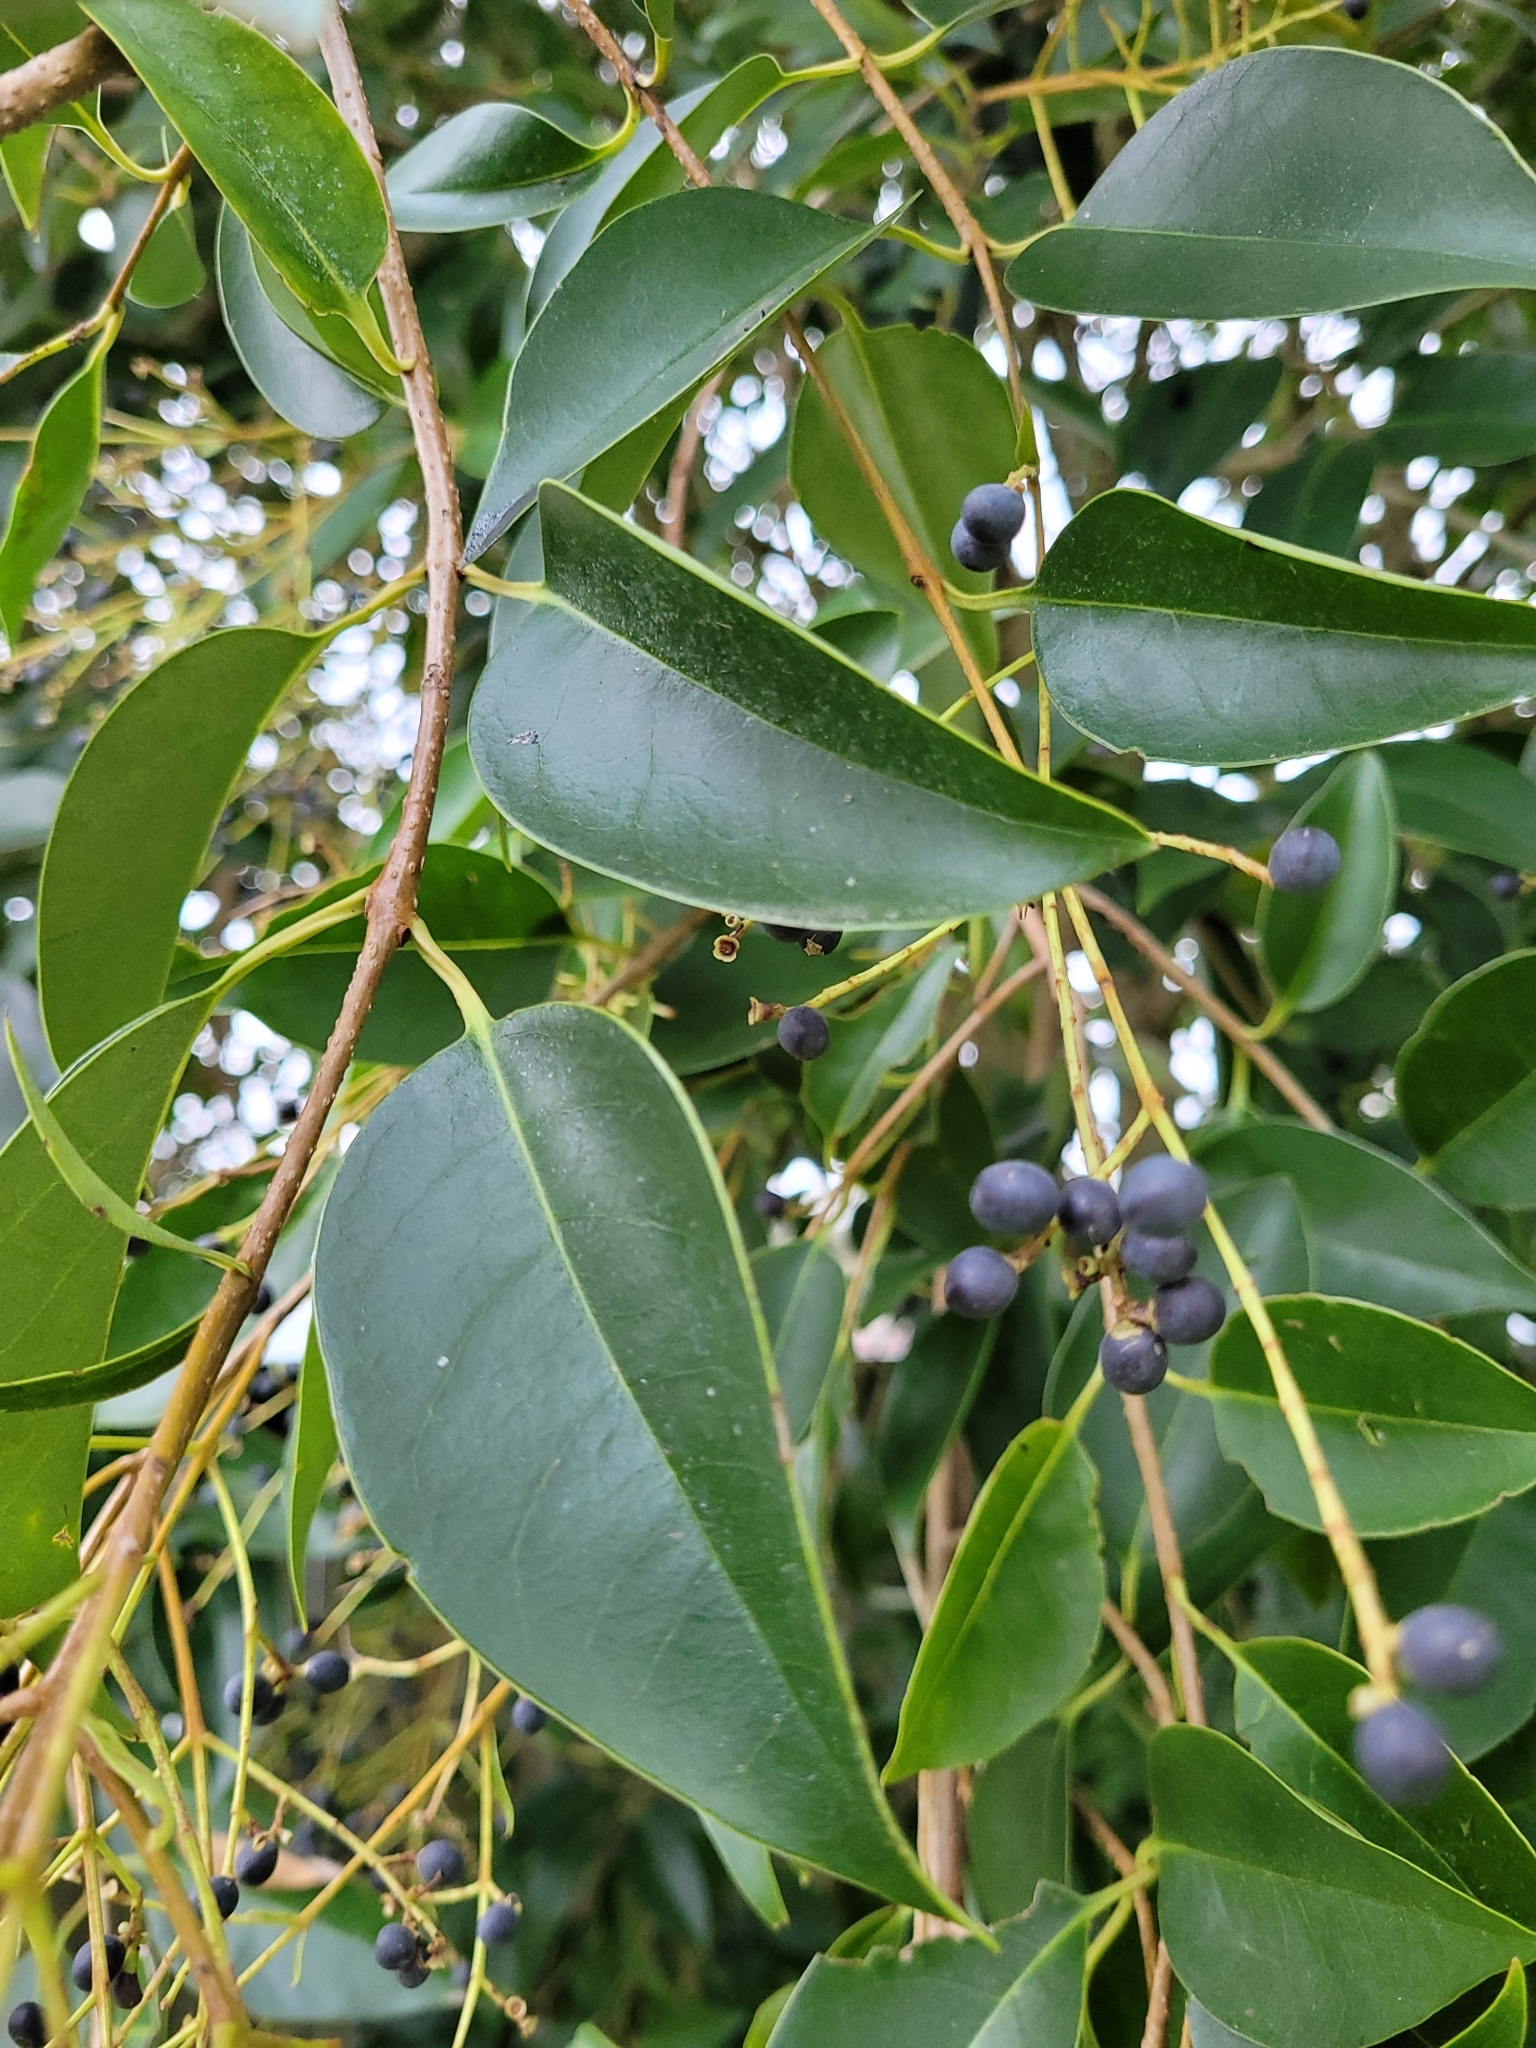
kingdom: Plantae
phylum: Tracheophyta
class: Magnoliopsida
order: Lamiales
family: Oleaceae
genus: Ligustrum
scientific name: Ligustrum lucidum
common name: Glossy privet
